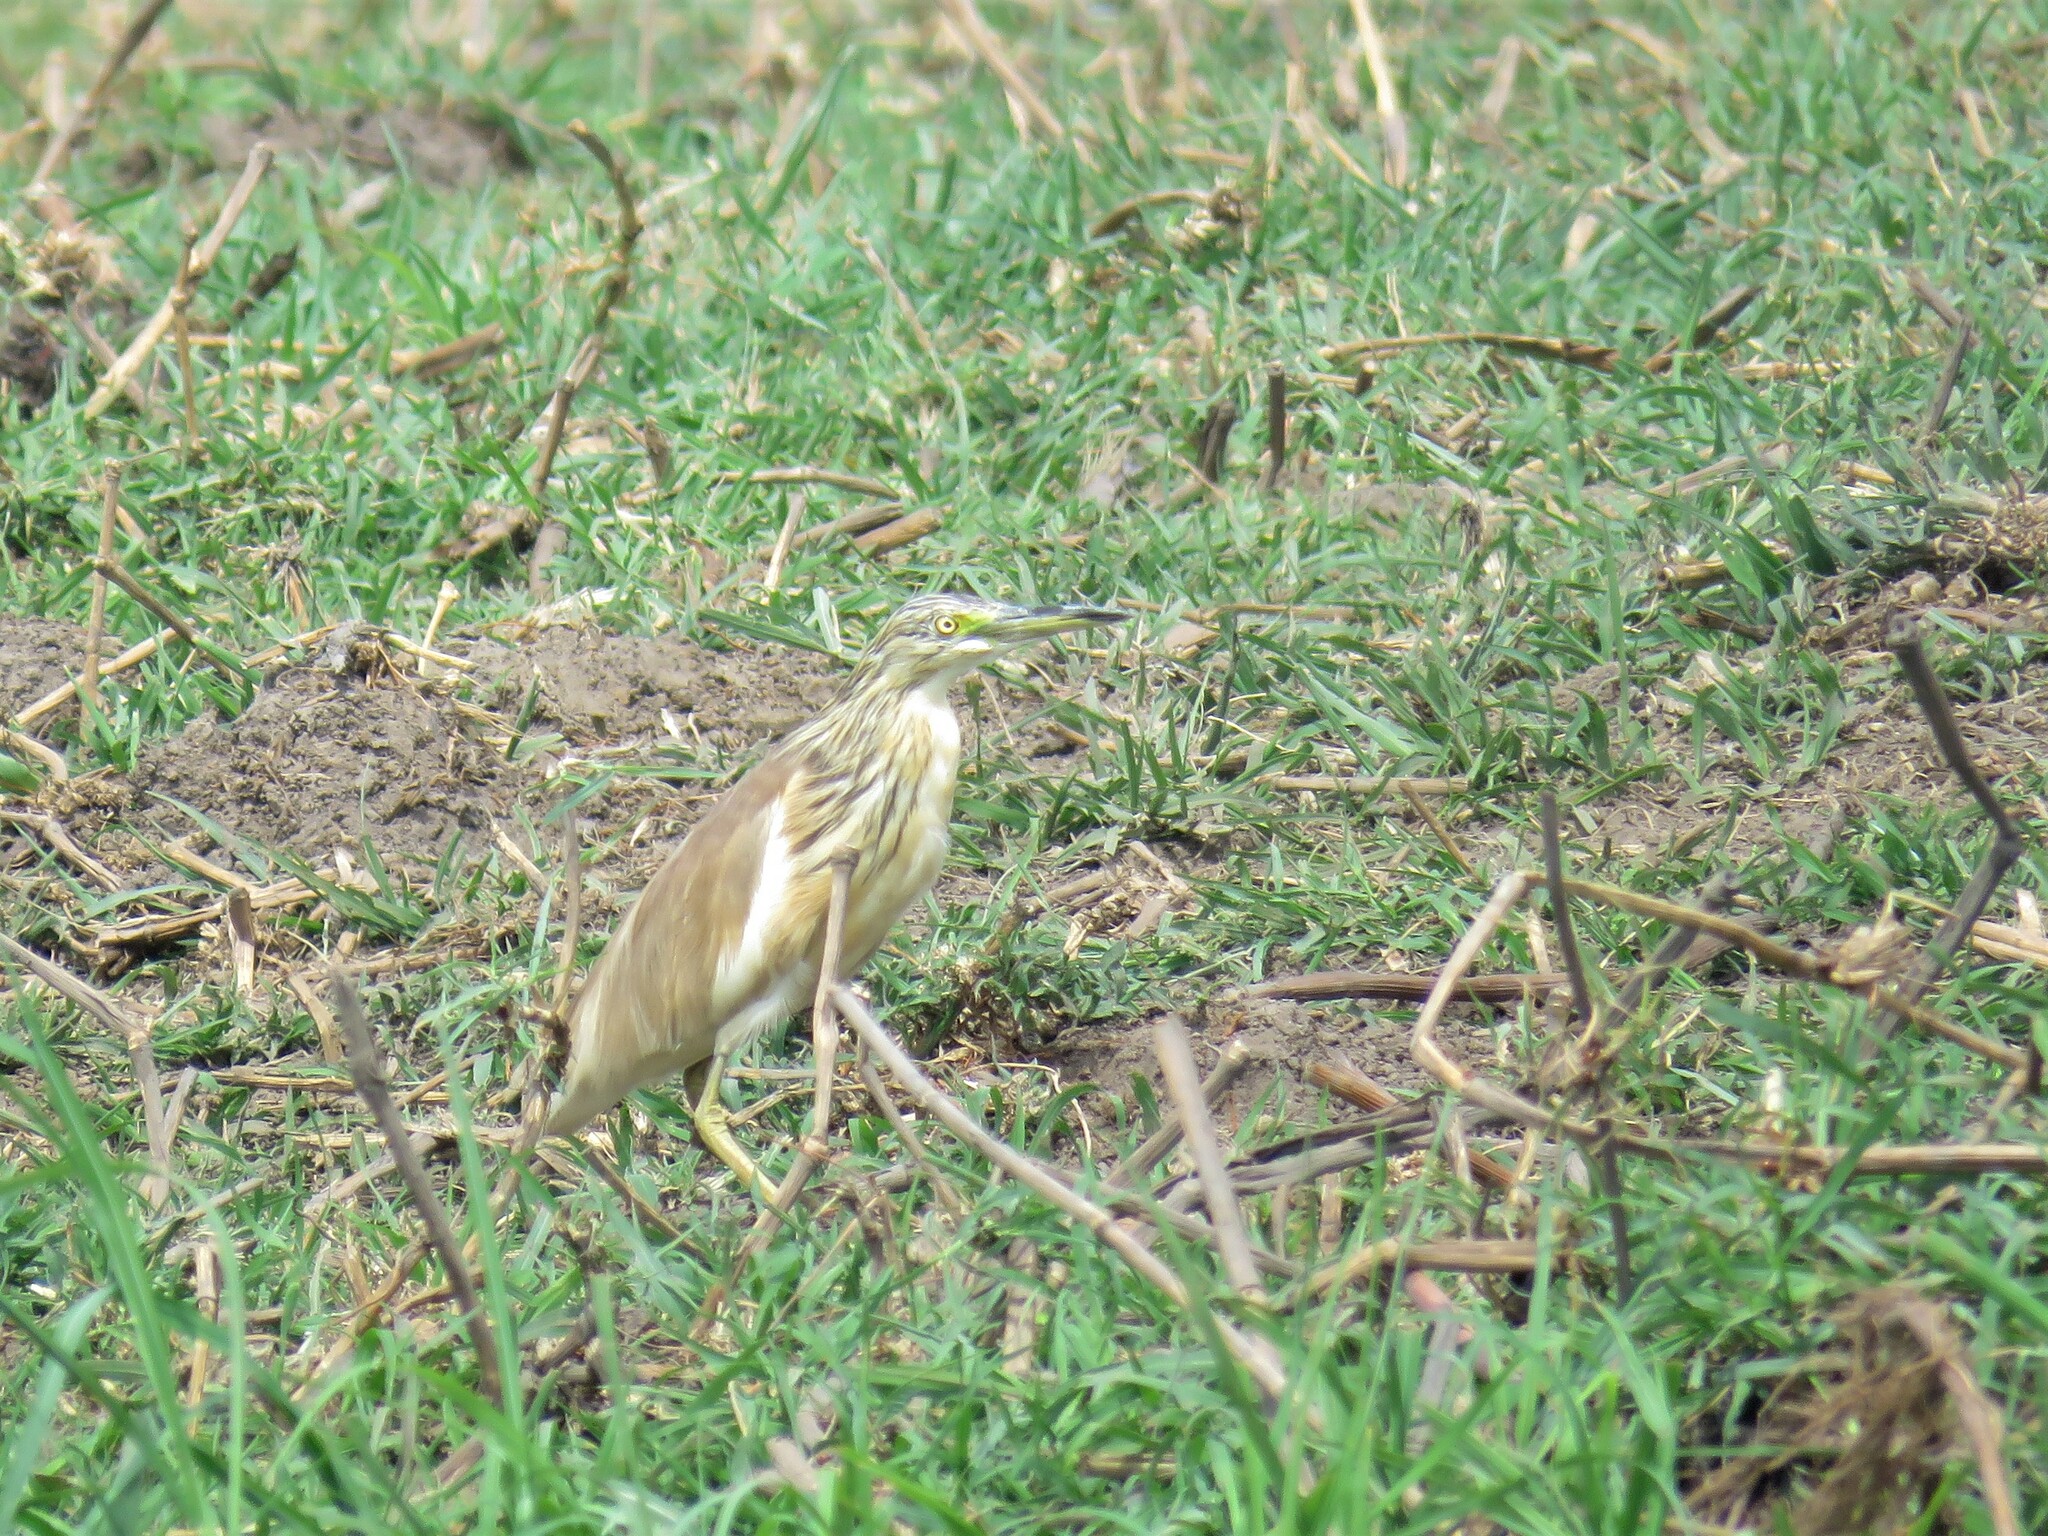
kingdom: Animalia
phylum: Chordata
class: Aves
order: Pelecaniformes
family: Ardeidae
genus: Ardeola
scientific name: Ardeola ralloides
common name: Squacco heron
